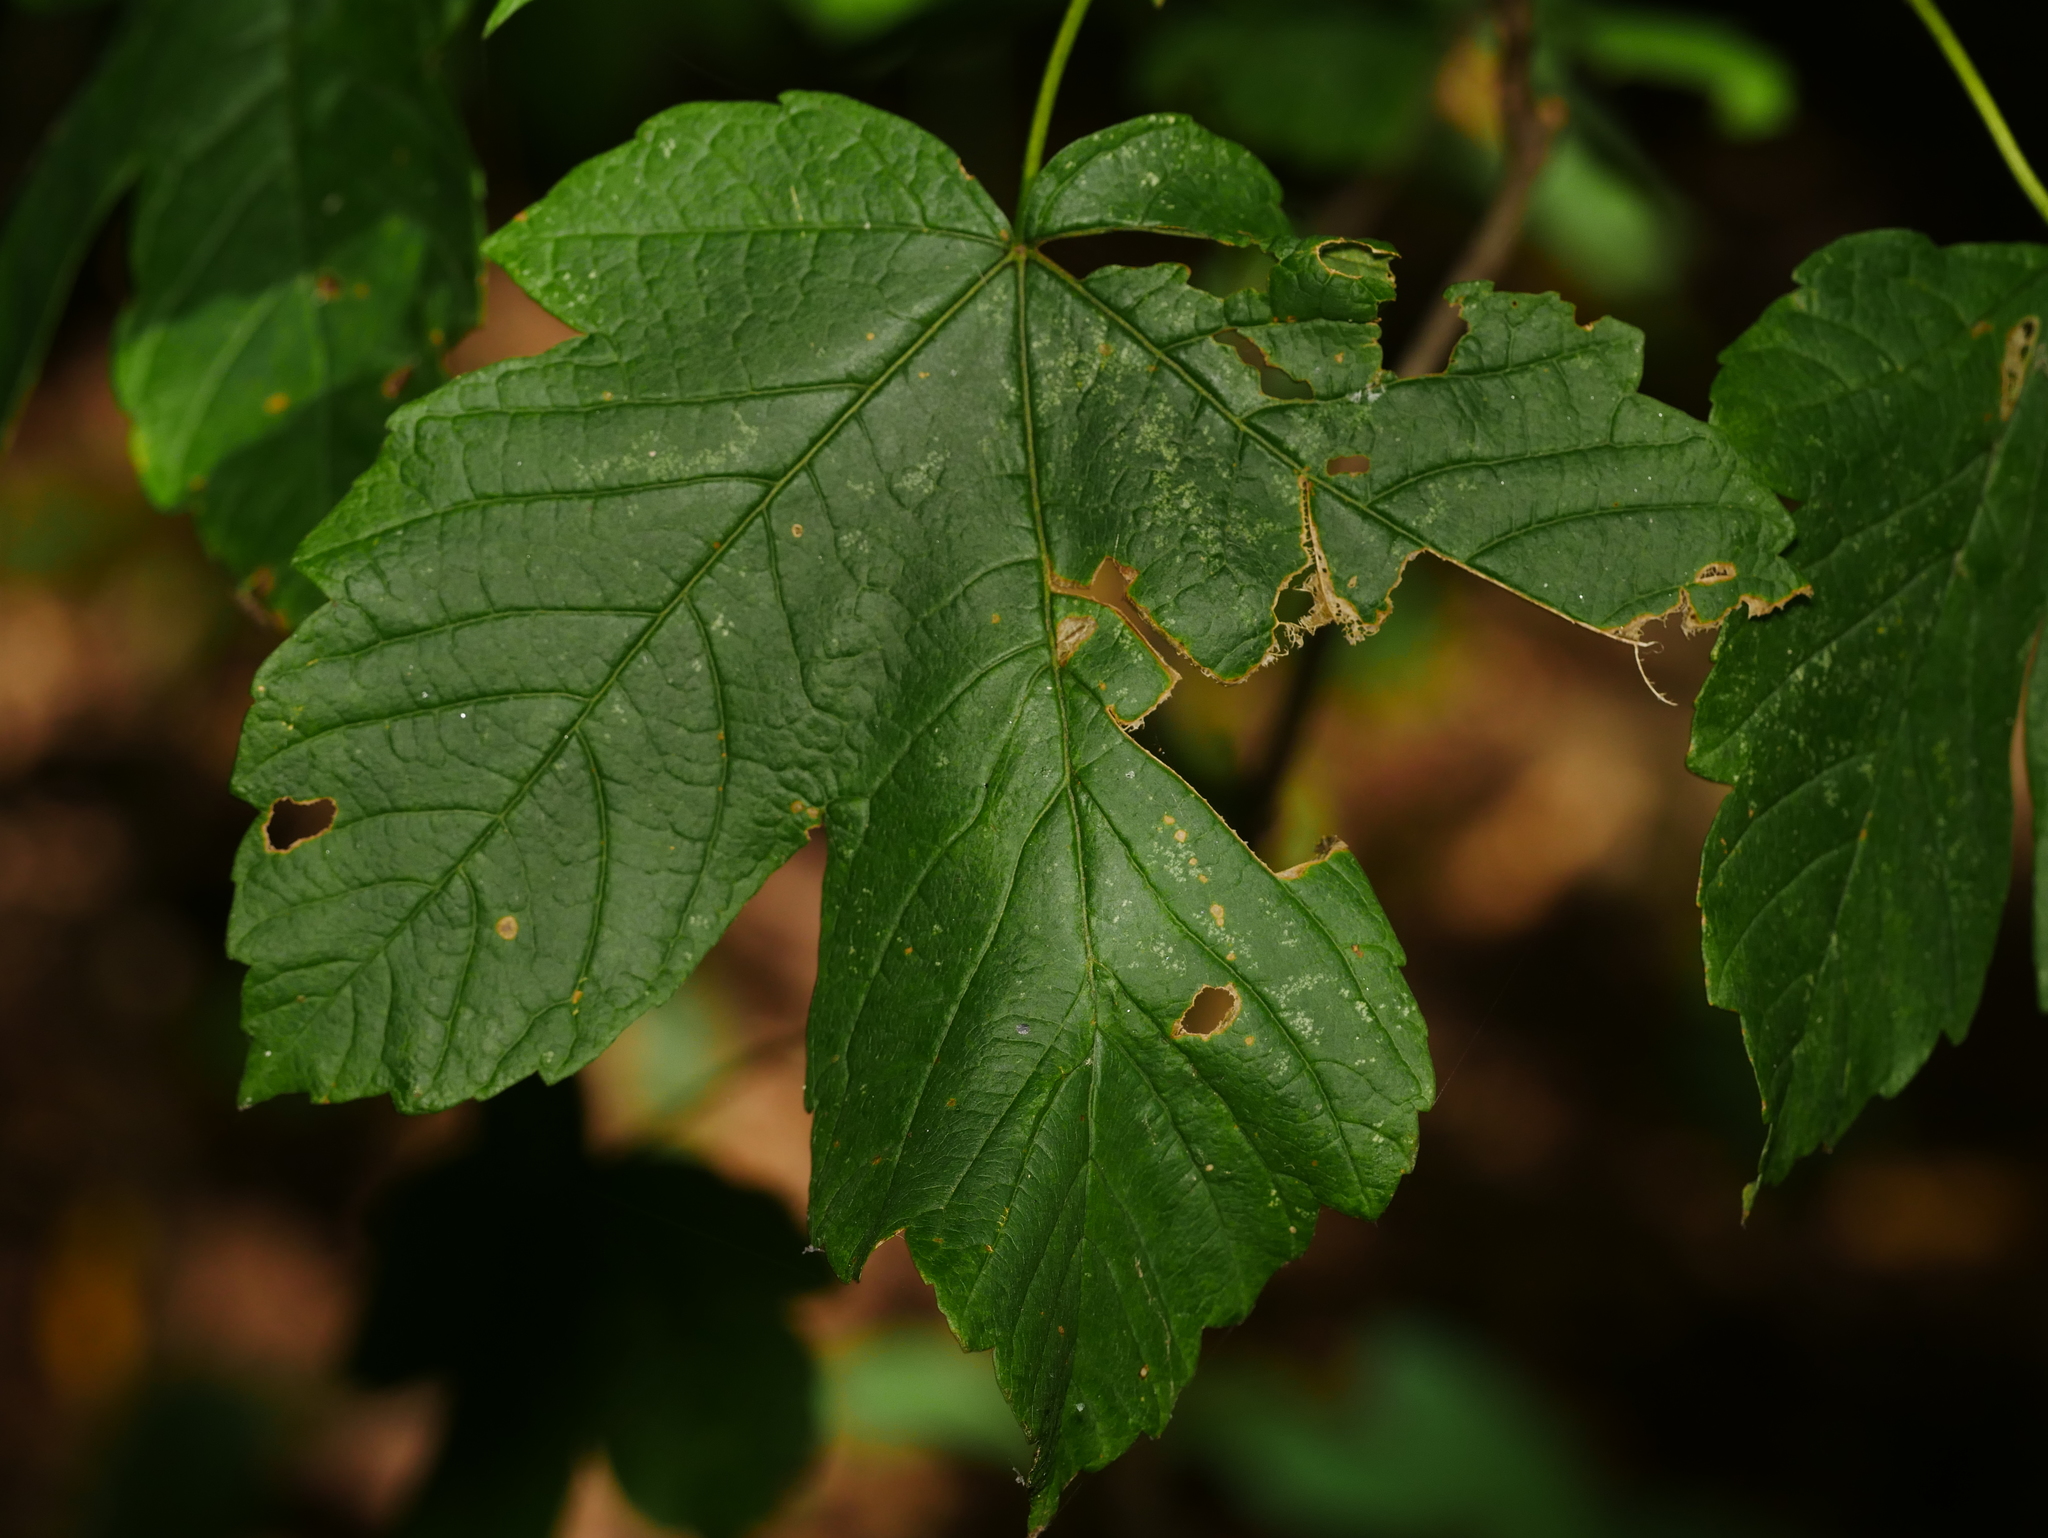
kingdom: Plantae
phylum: Tracheophyta
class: Magnoliopsida
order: Sapindales
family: Sapindaceae
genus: Acer
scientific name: Acer pseudoplatanus
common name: Sycamore
